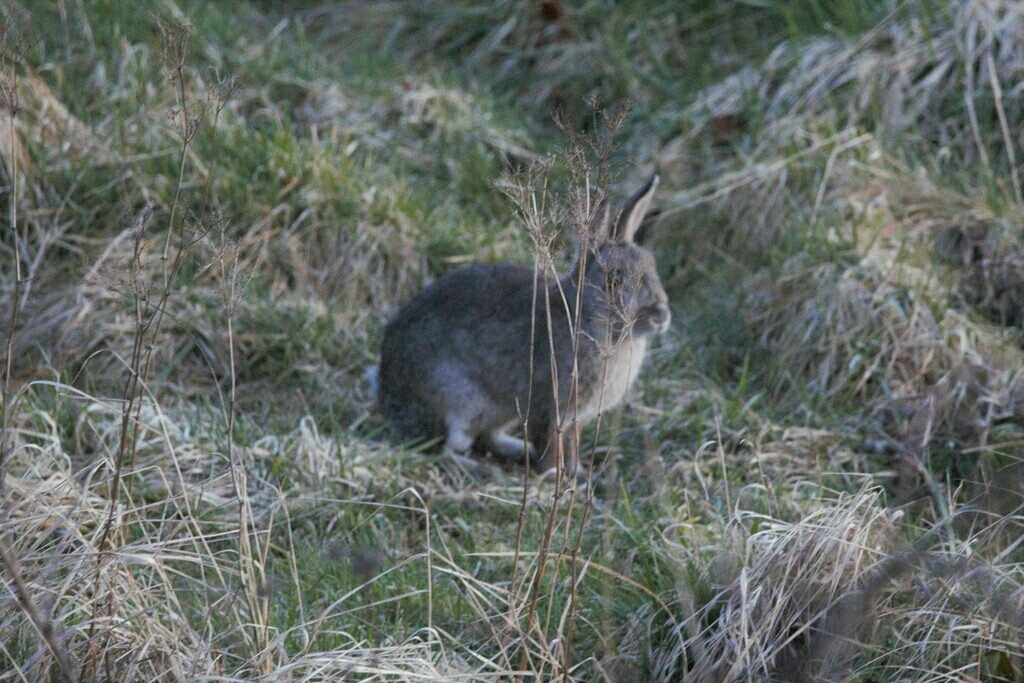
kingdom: Animalia
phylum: Chordata
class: Mammalia
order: Lagomorpha
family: Leporidae
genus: Oryctolagus
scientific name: Oryctolagus cuniculus
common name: European rabbit
